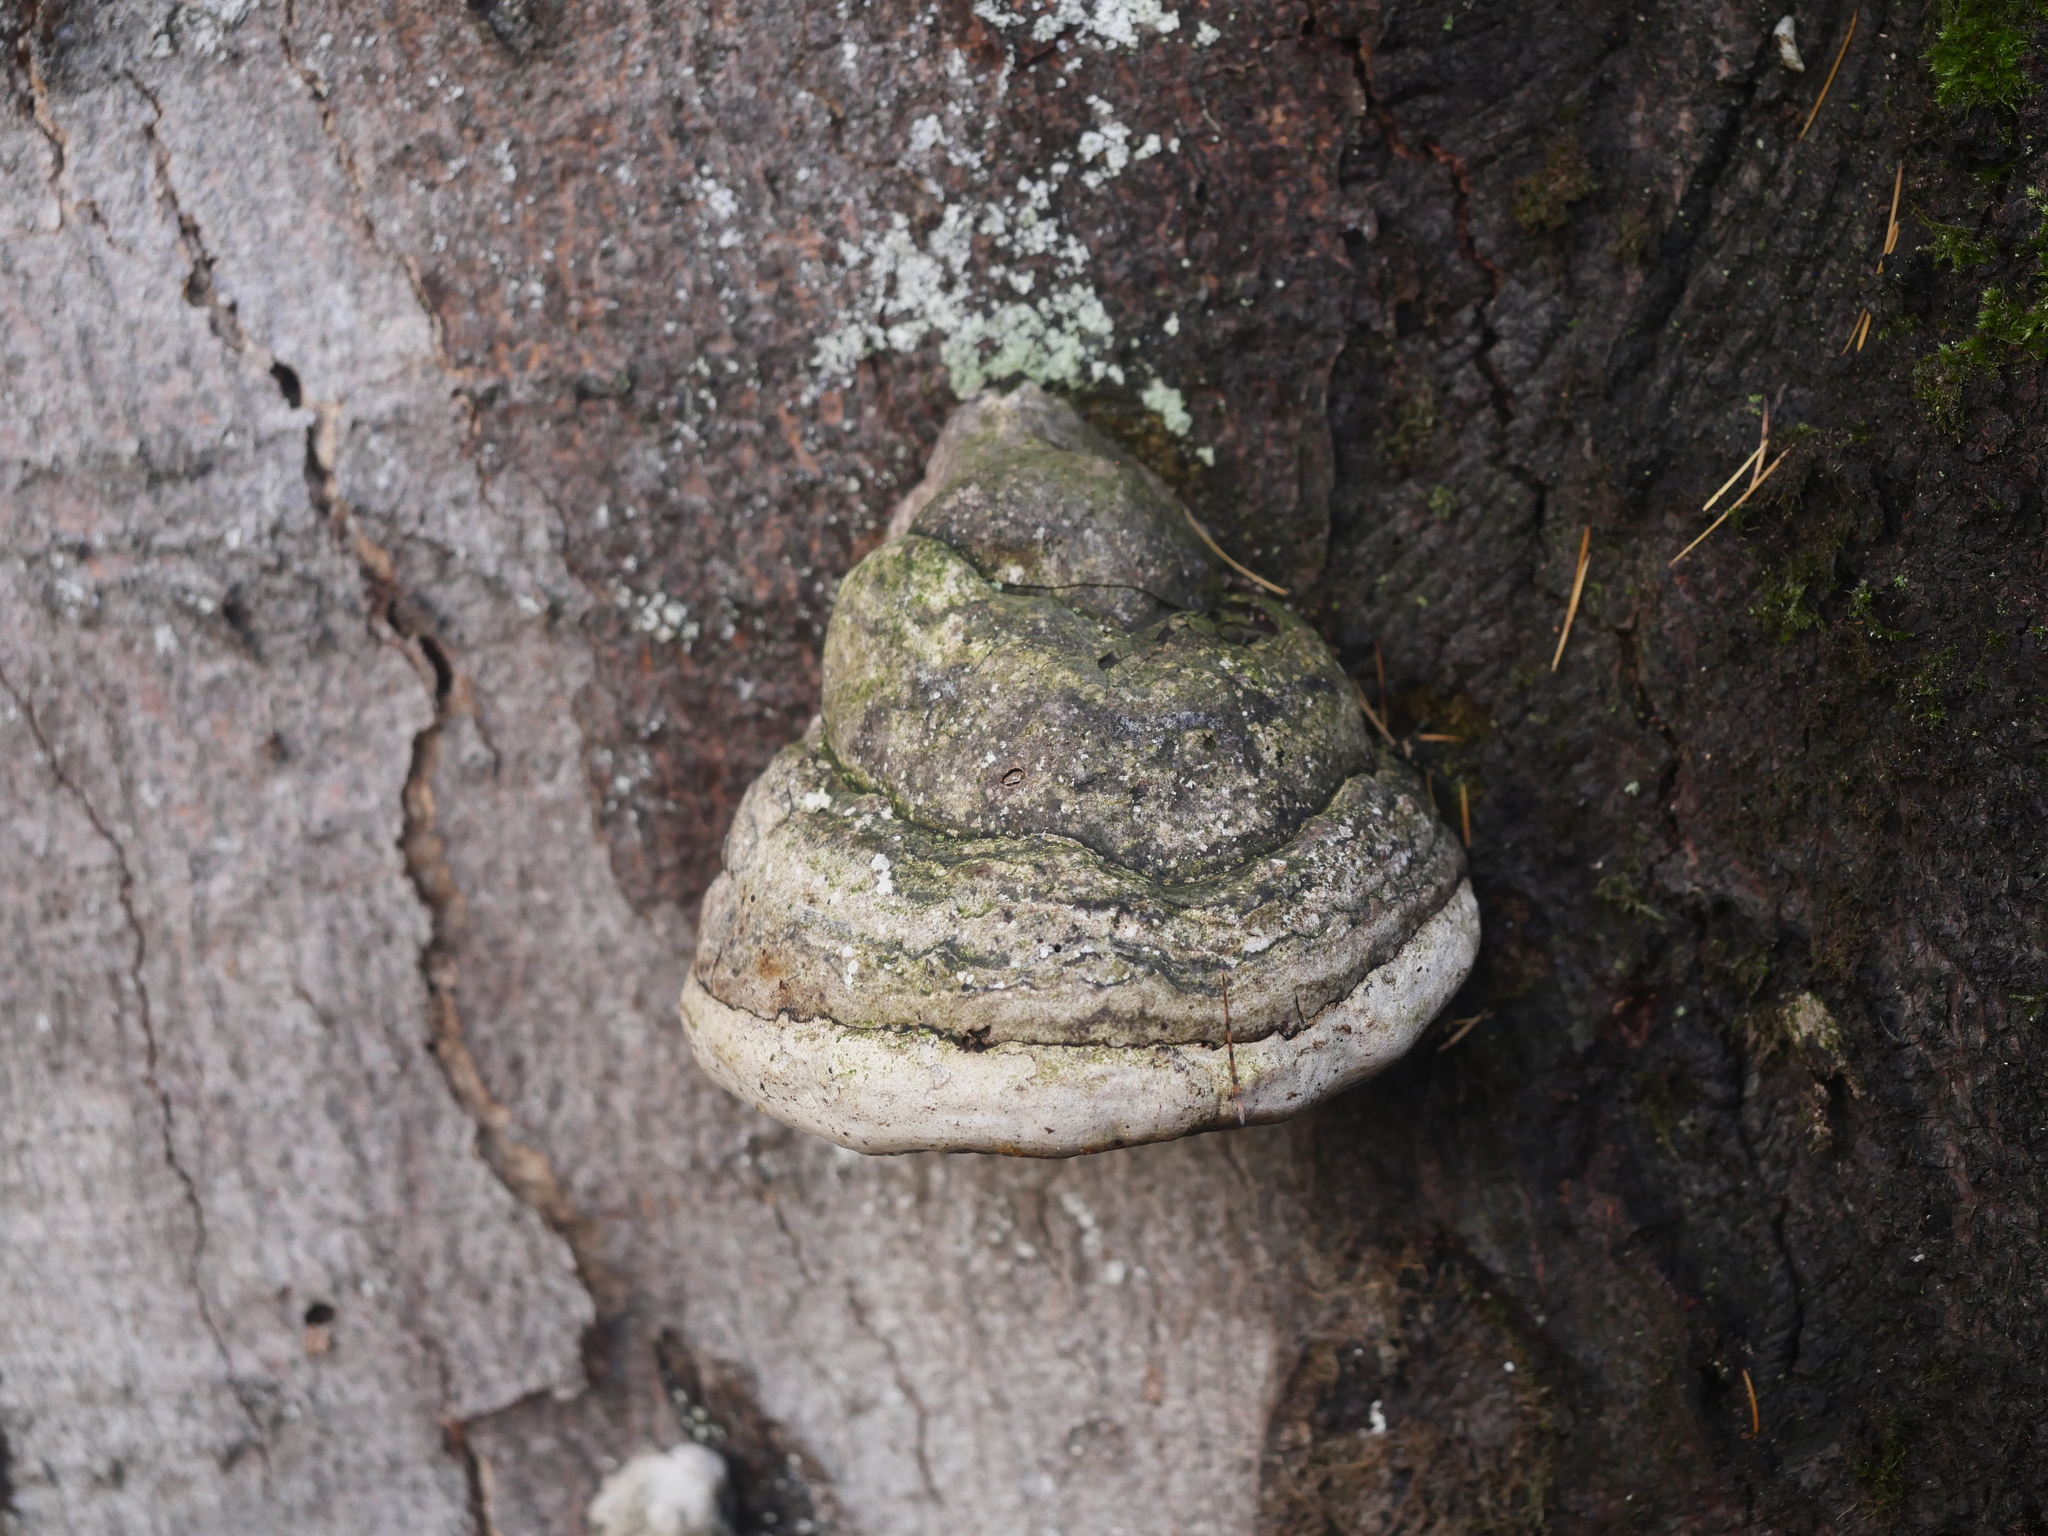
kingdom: Fungi
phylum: Basidiomycota
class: Agaricomycetes
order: Polyporales
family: Polyporaceae
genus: Fomes
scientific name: Fomes fomentarius
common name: Hoof fungus
